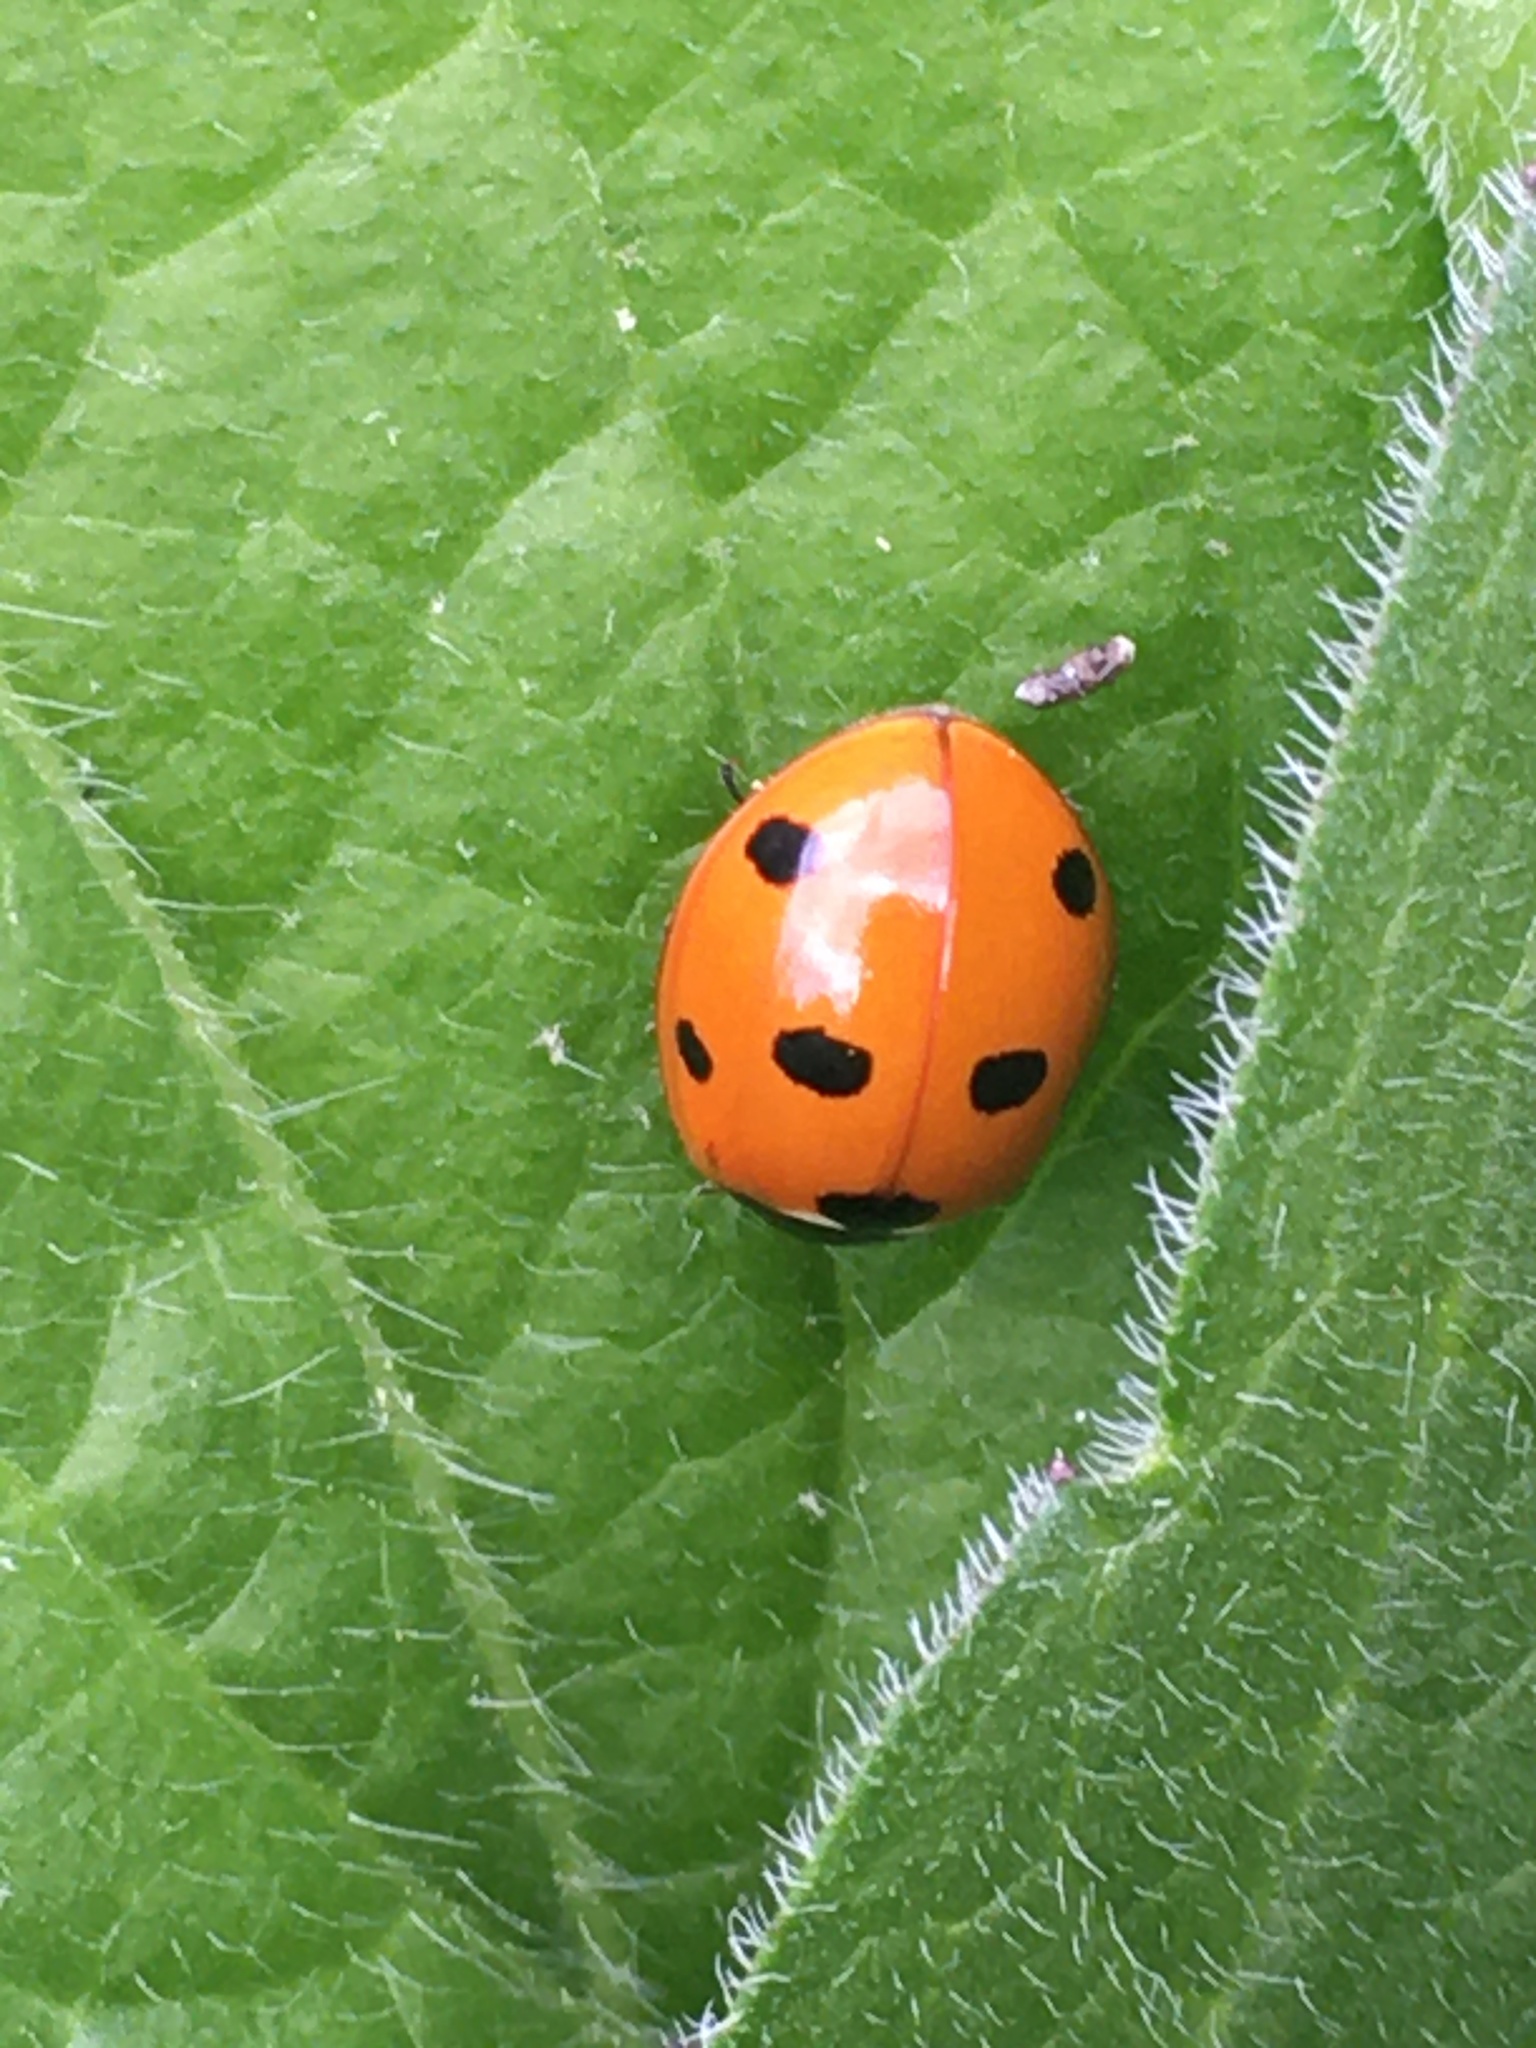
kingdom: Animalia
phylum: Arthropoda
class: Insecta
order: Coleoptera
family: Coccinellidae
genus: Coccinella
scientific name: Coccinella septempunctata
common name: Sevenspotted lady beetle
